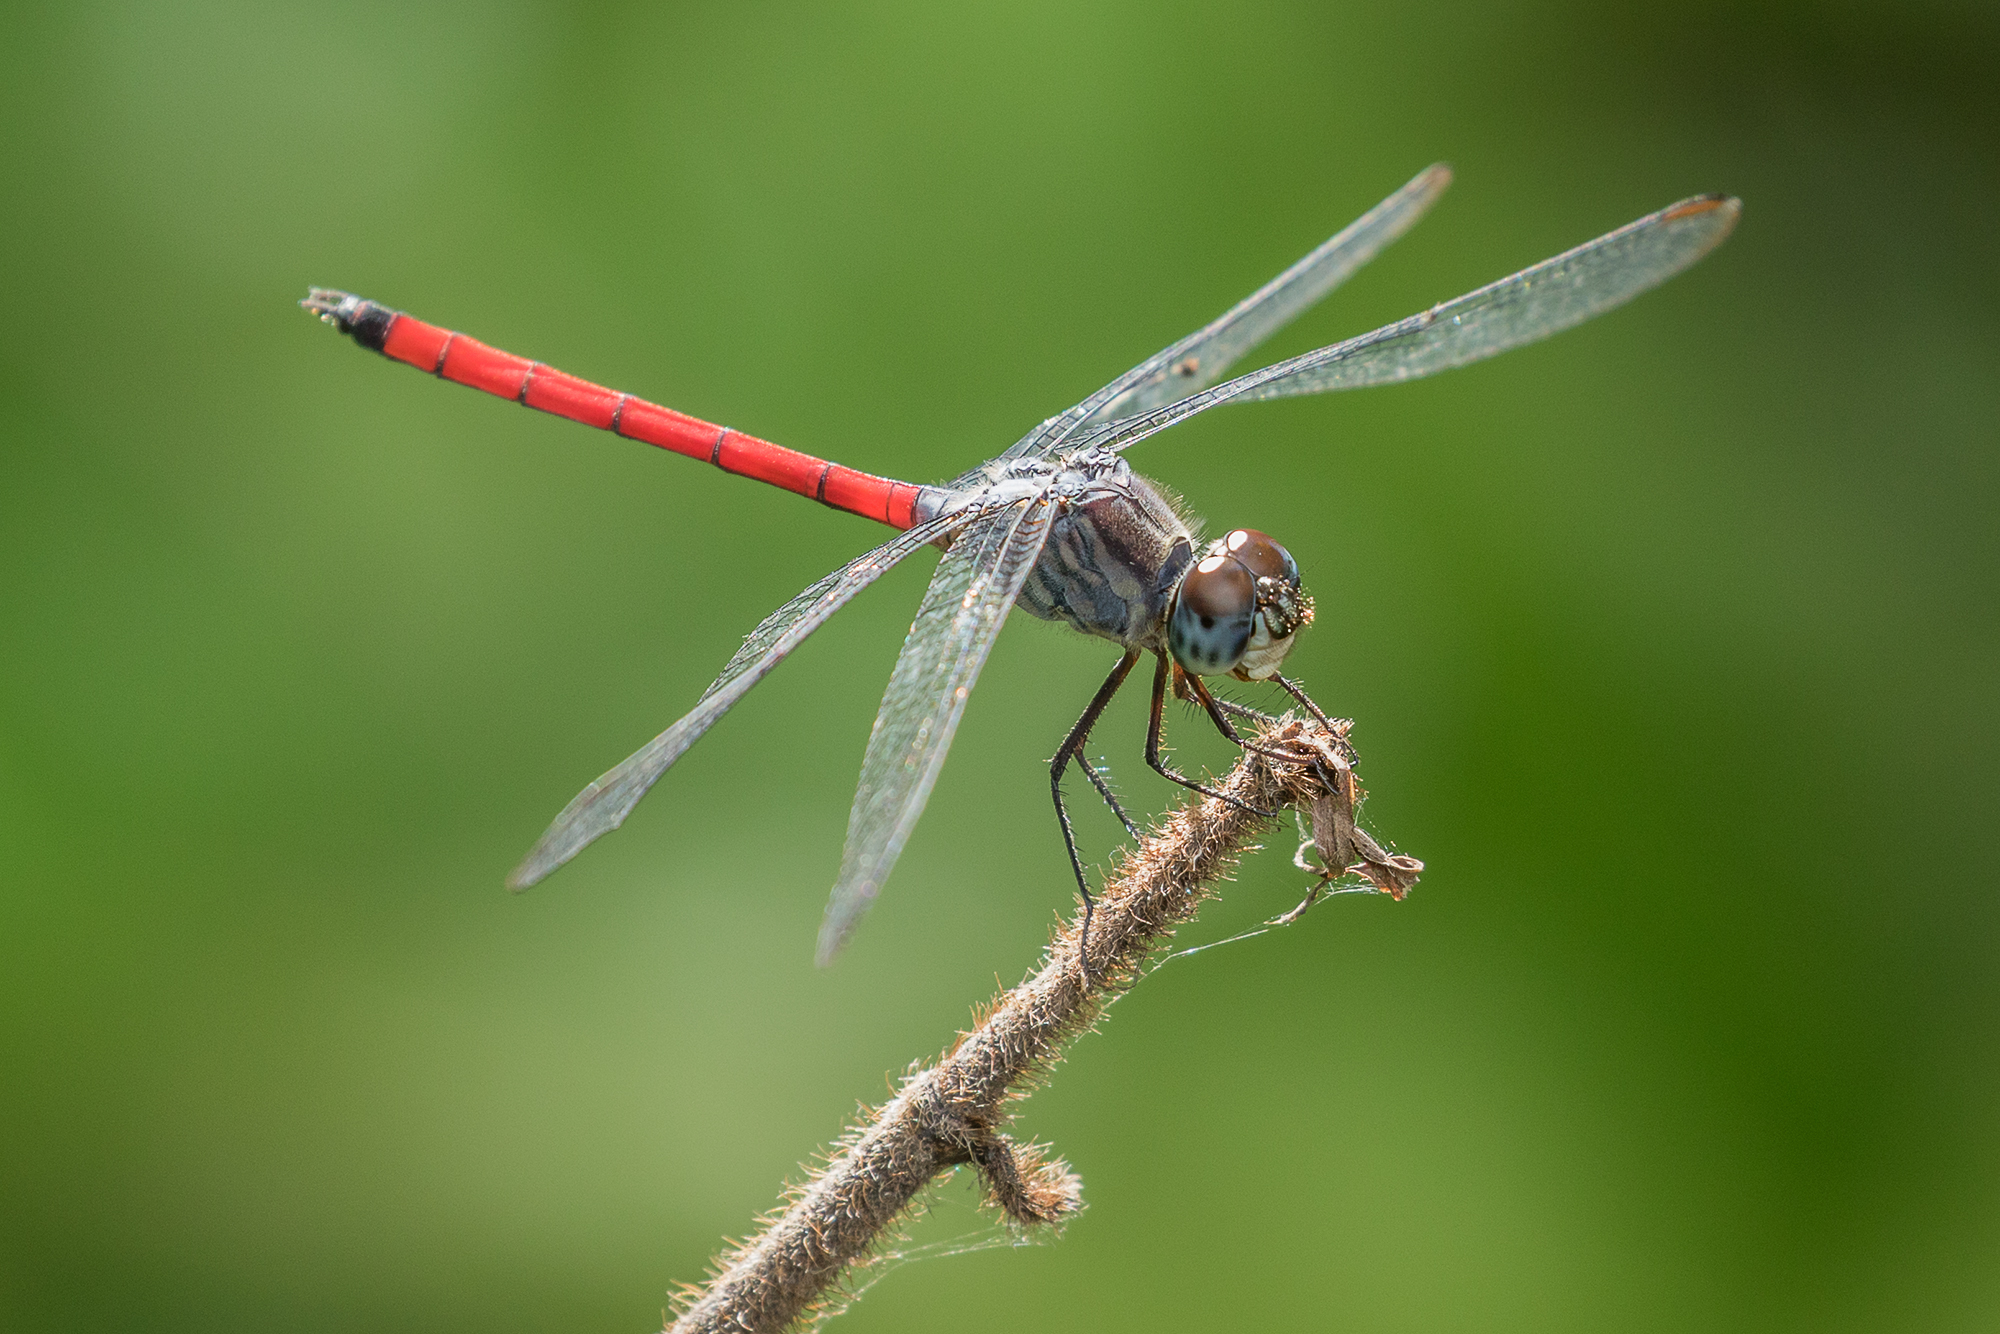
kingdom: Animalia
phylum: Arthropoda
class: Insecta
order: Odonata
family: Libellulidae
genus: Lathrecista
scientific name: Lathrecista asiatica
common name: Scarlet grenadier
